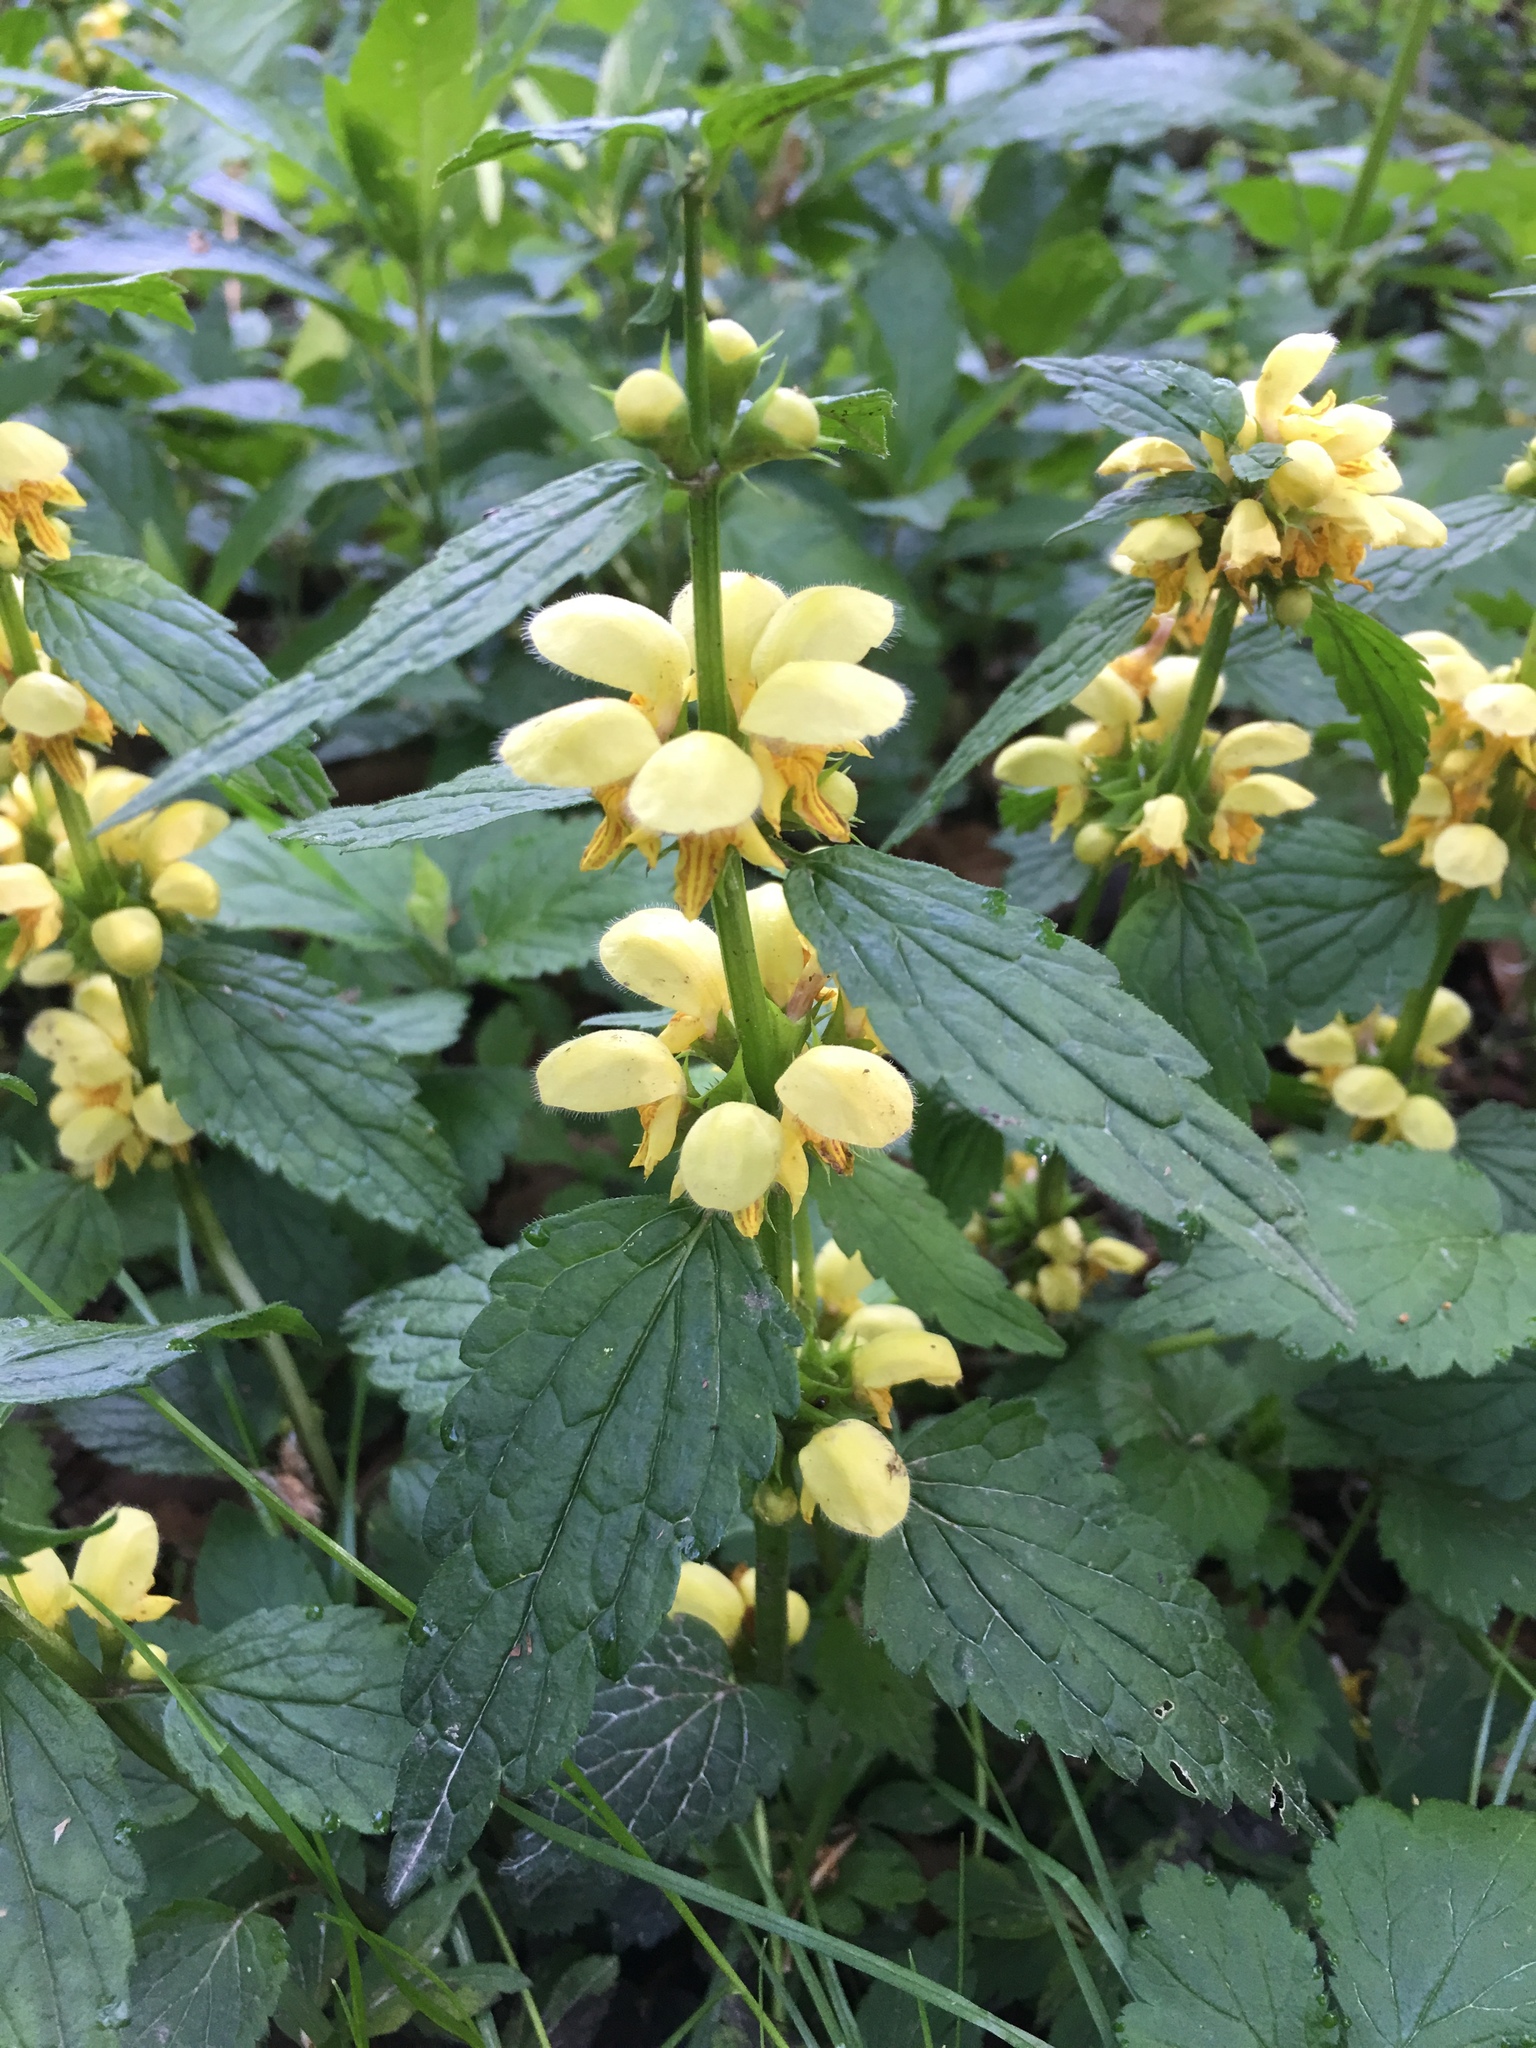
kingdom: Plantae
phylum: Tracheophyta
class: Magnoliopsida
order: Lamiales
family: Lamiaceae
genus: Lamium
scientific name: Lamium galeobdolon
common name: Yellow archangel
